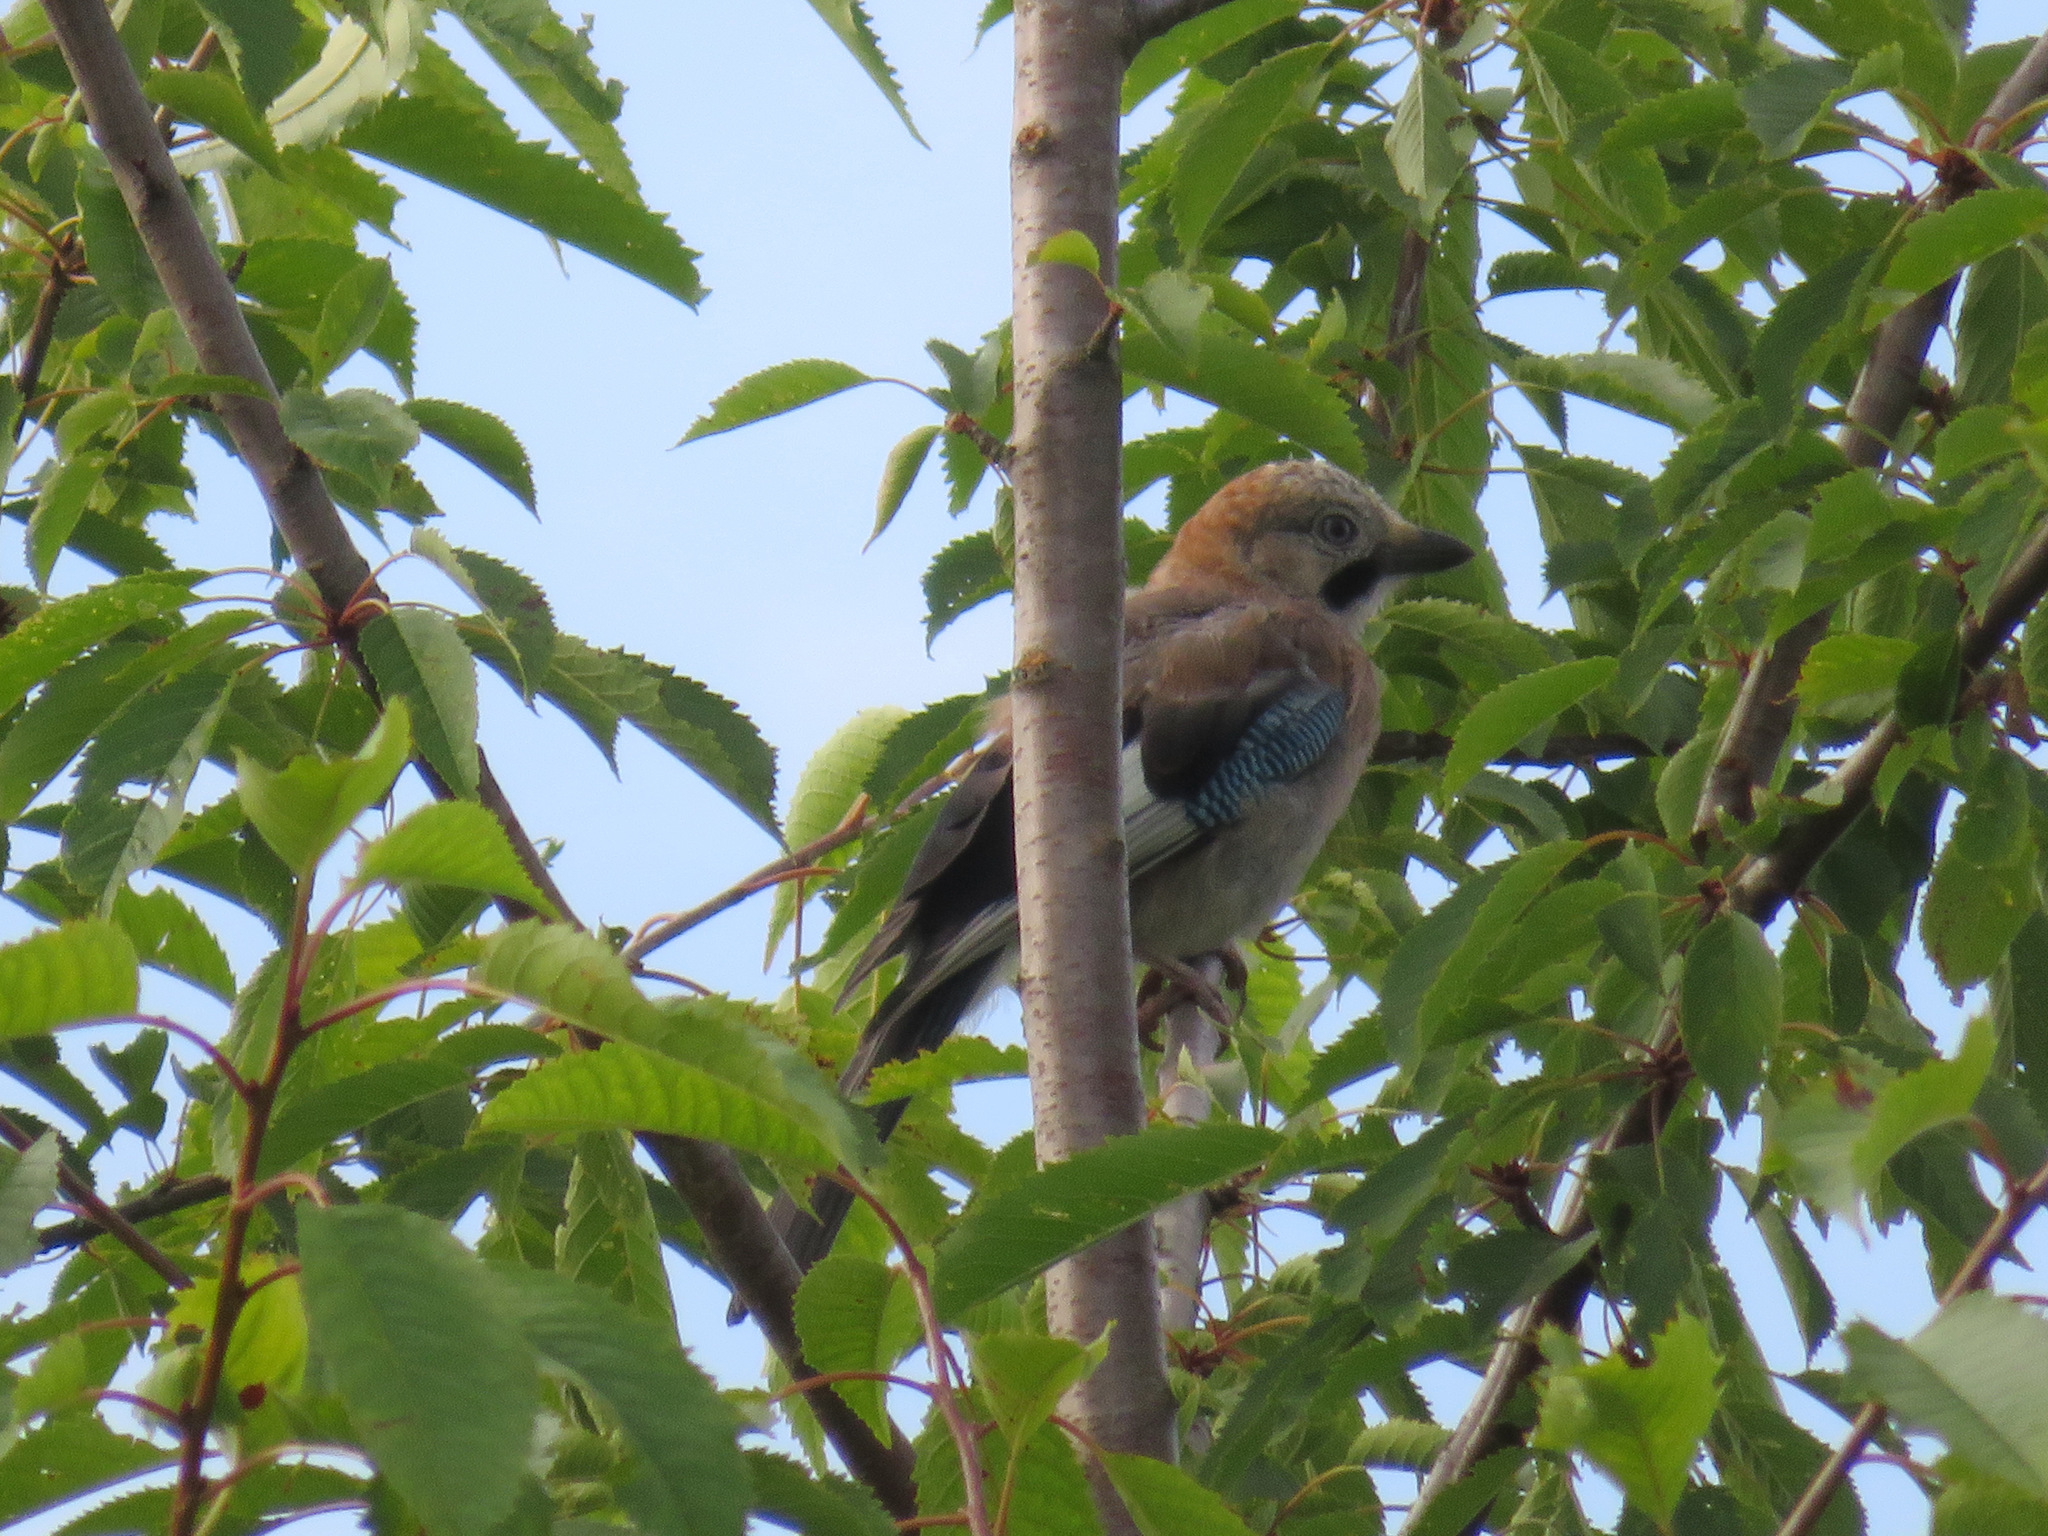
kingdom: Animalia
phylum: Chordata
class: Aves
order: Passeriformes
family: Corvidae
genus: Garrulus
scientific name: Garrulus glandarius
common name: Eurasian jay
